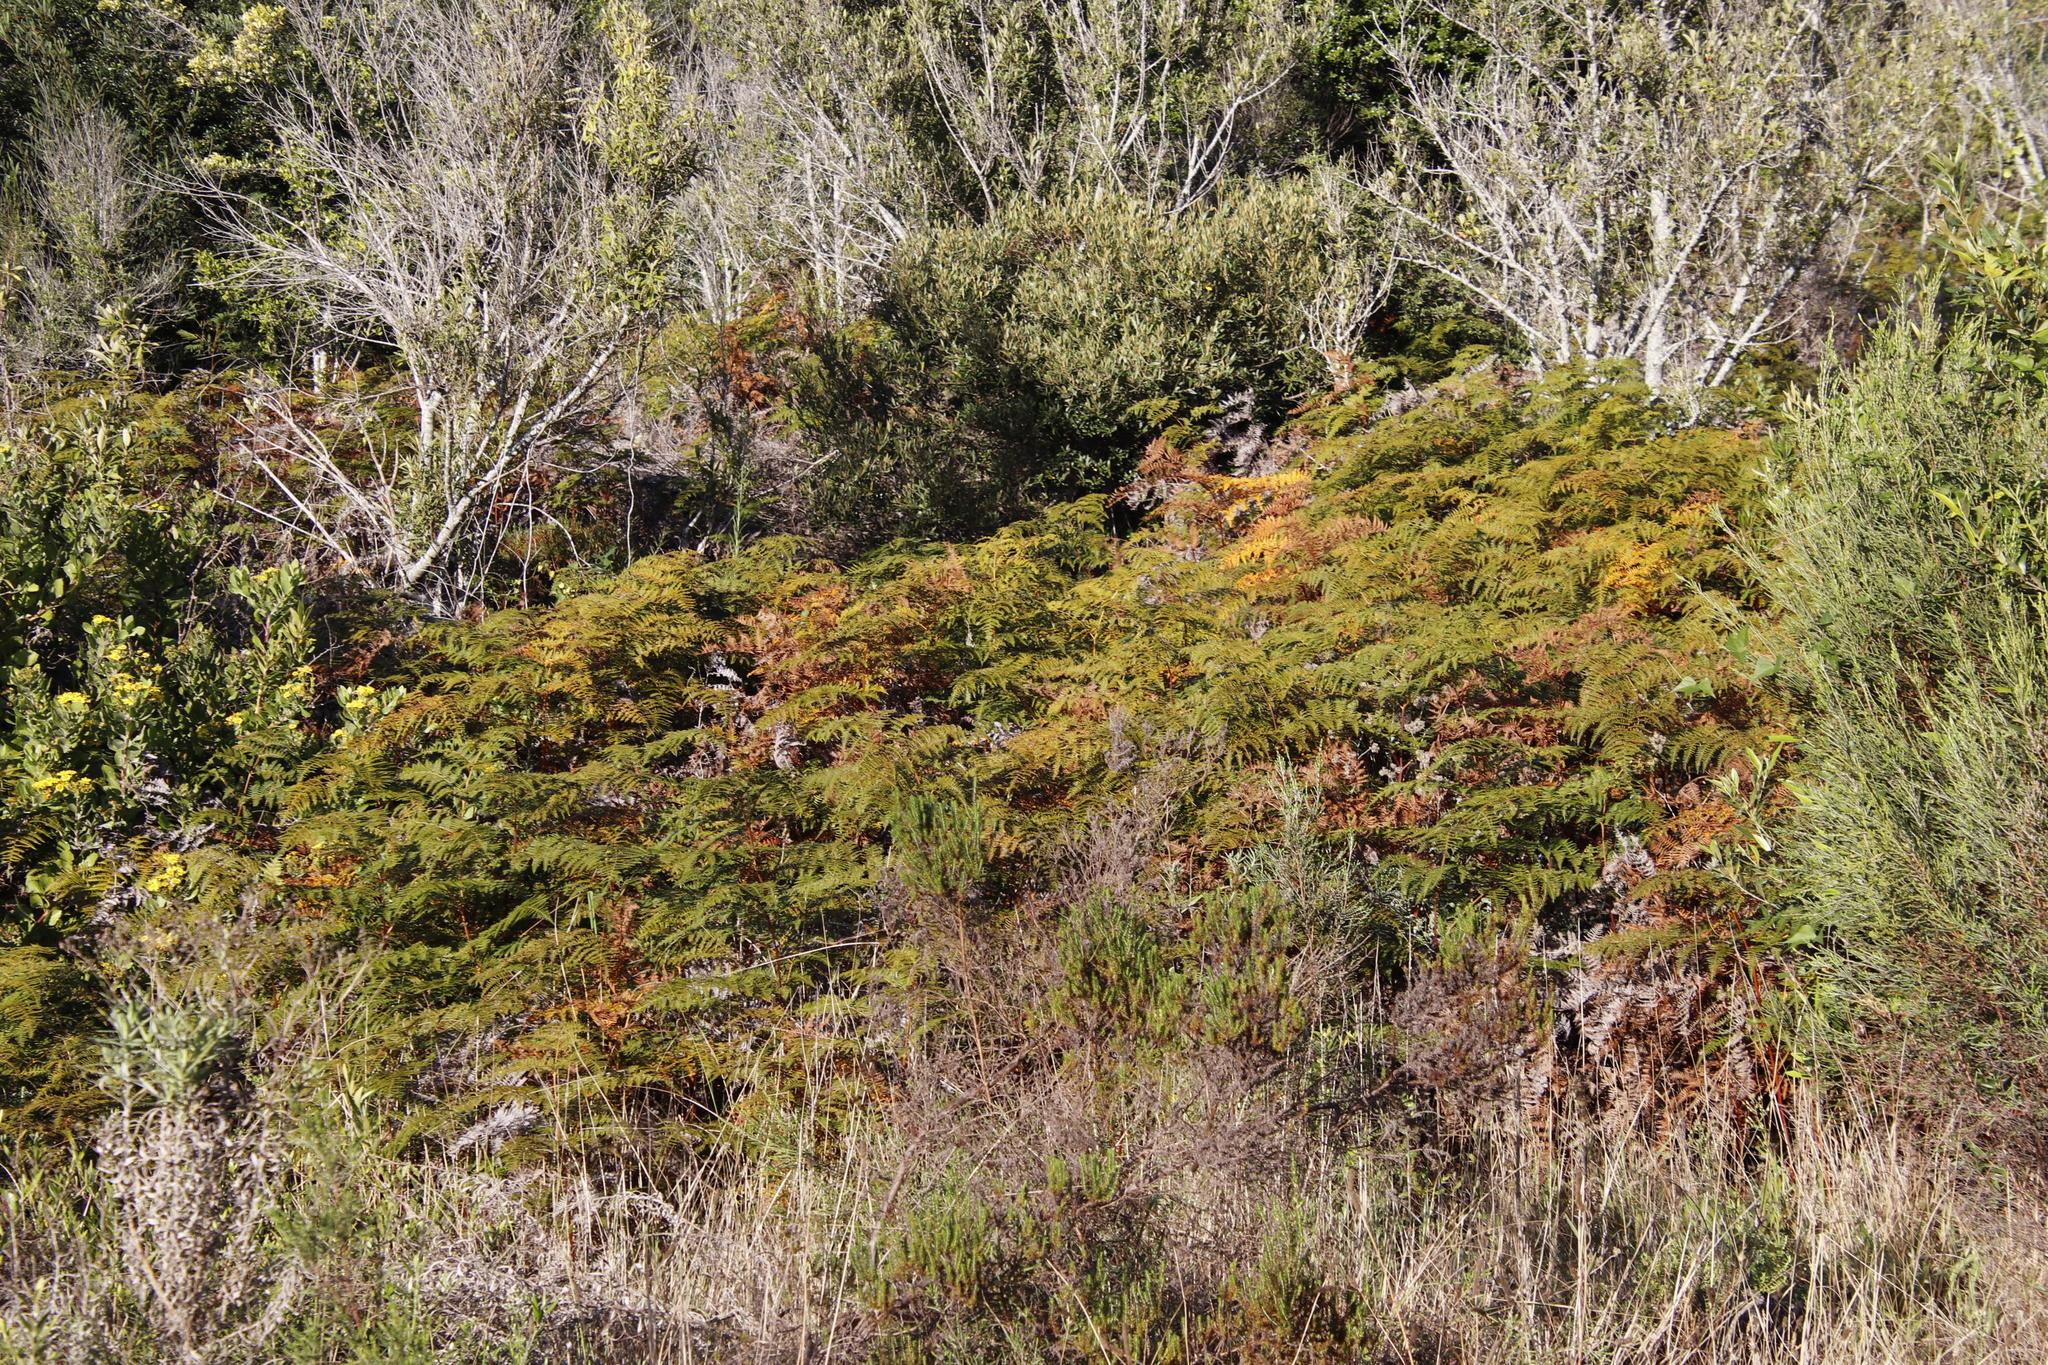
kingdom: Plantae
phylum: Tracheophyta
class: Polypodiopsida
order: Polypodiales
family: Dennstaedtiaceae
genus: Pteridium
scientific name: Pteridium aquilinum
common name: Bracken
